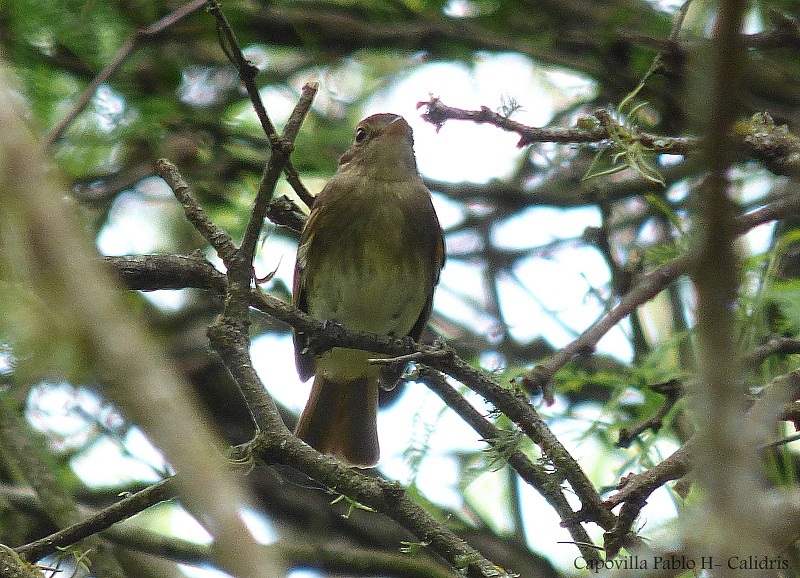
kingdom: Animalia
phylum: Chordata
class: Aves
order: Passeriformes
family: Tyrannidae
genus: Lathrotriccus
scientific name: Lathrotriccus euleri
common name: Euler's flycatcher
